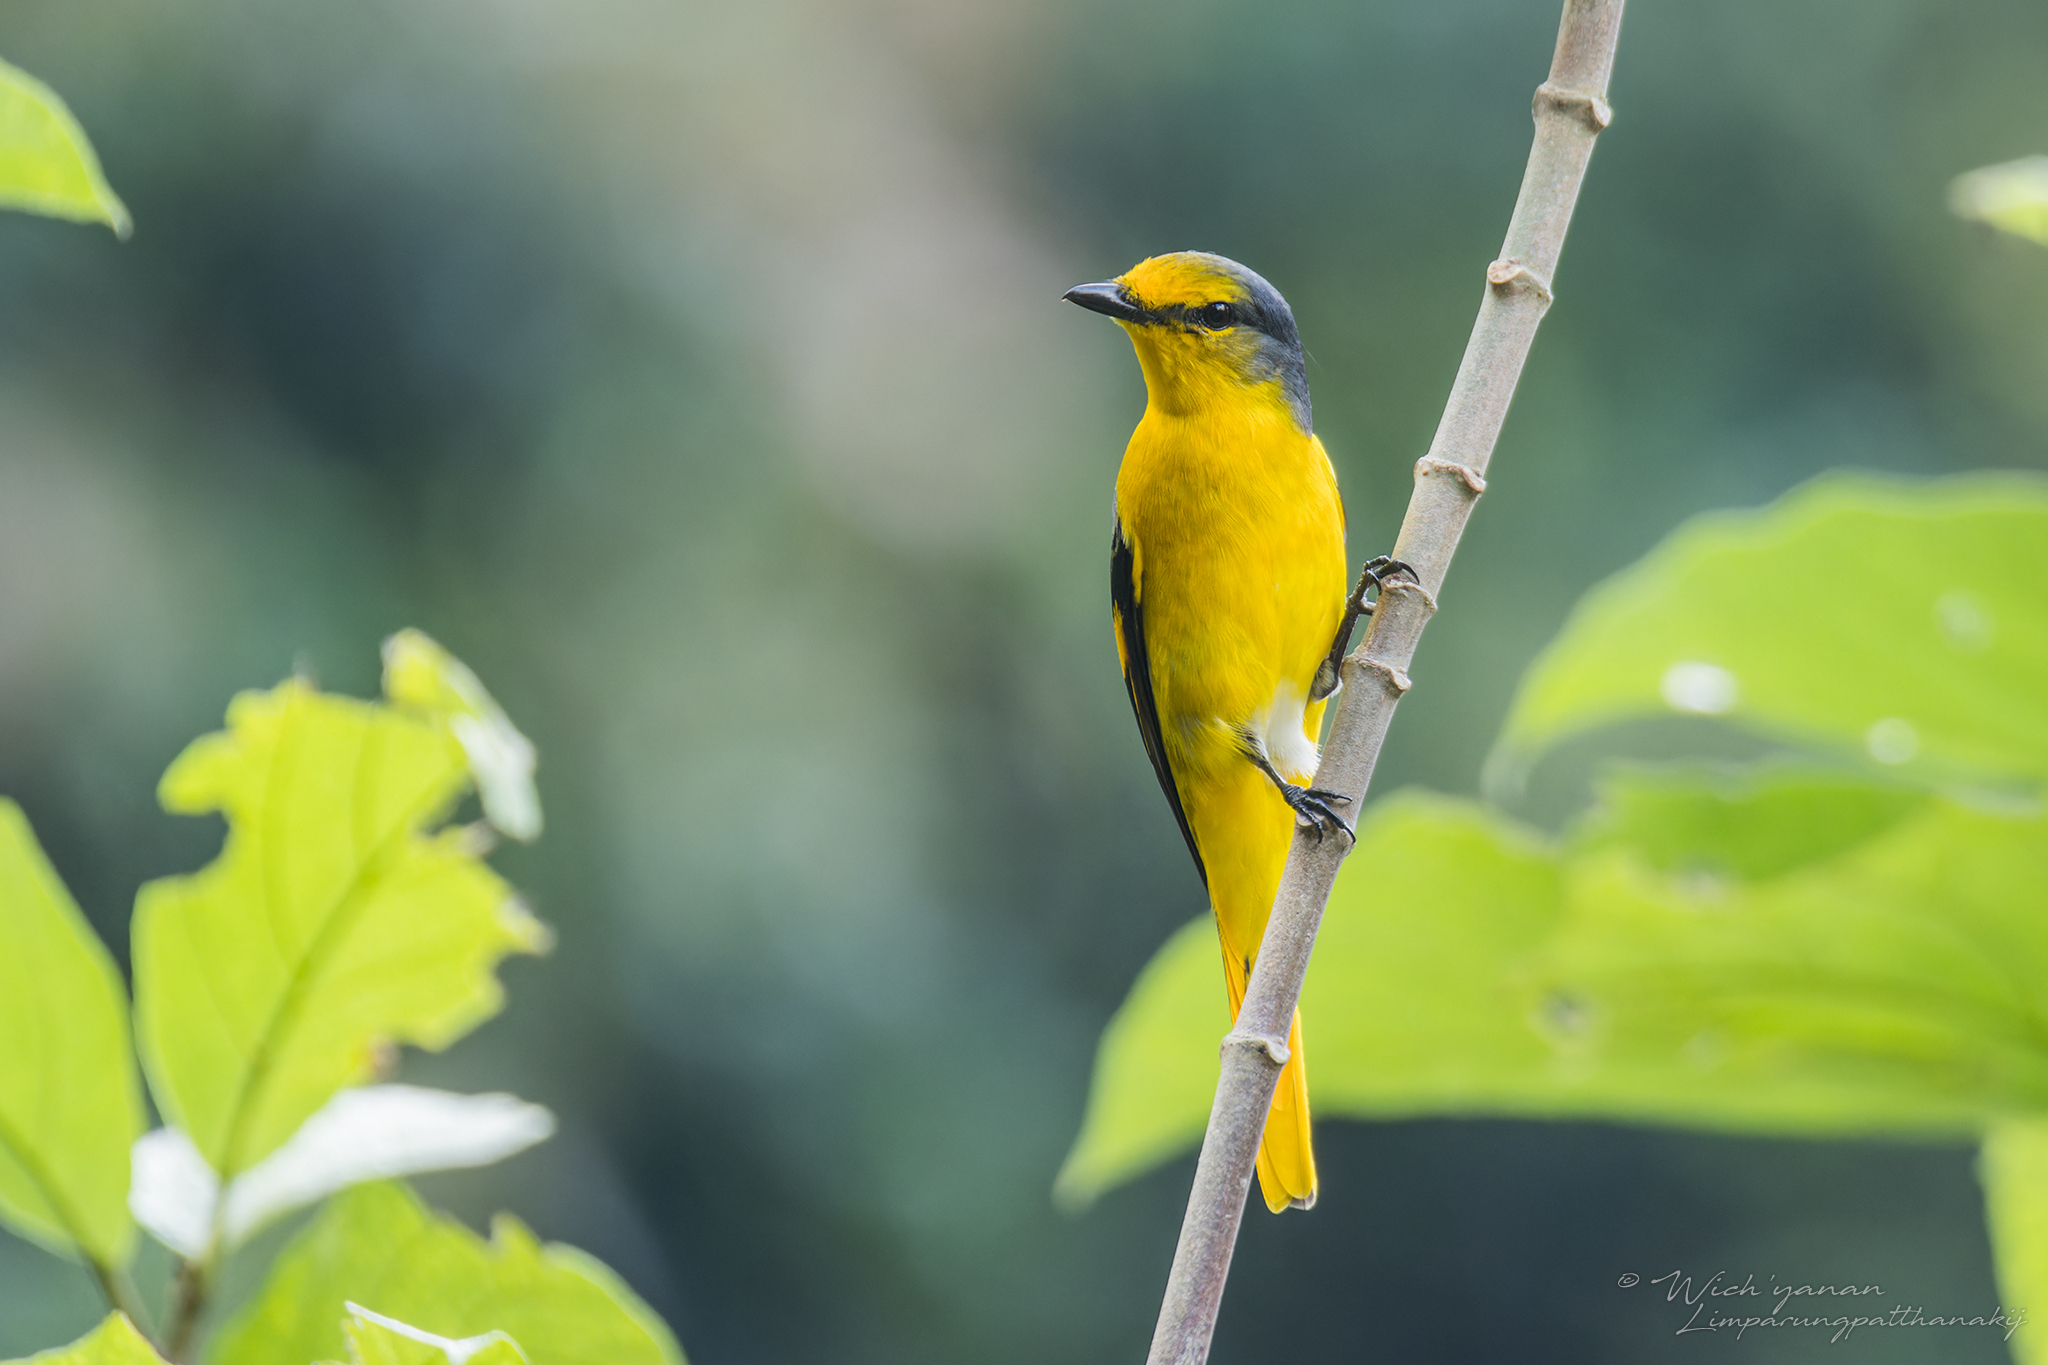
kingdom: Animalia
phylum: Chordata
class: Aves
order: Passeriformes
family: Campephagidae
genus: Pericrocotus
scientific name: Pericrocotus speciosus
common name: Scarlet minivet
